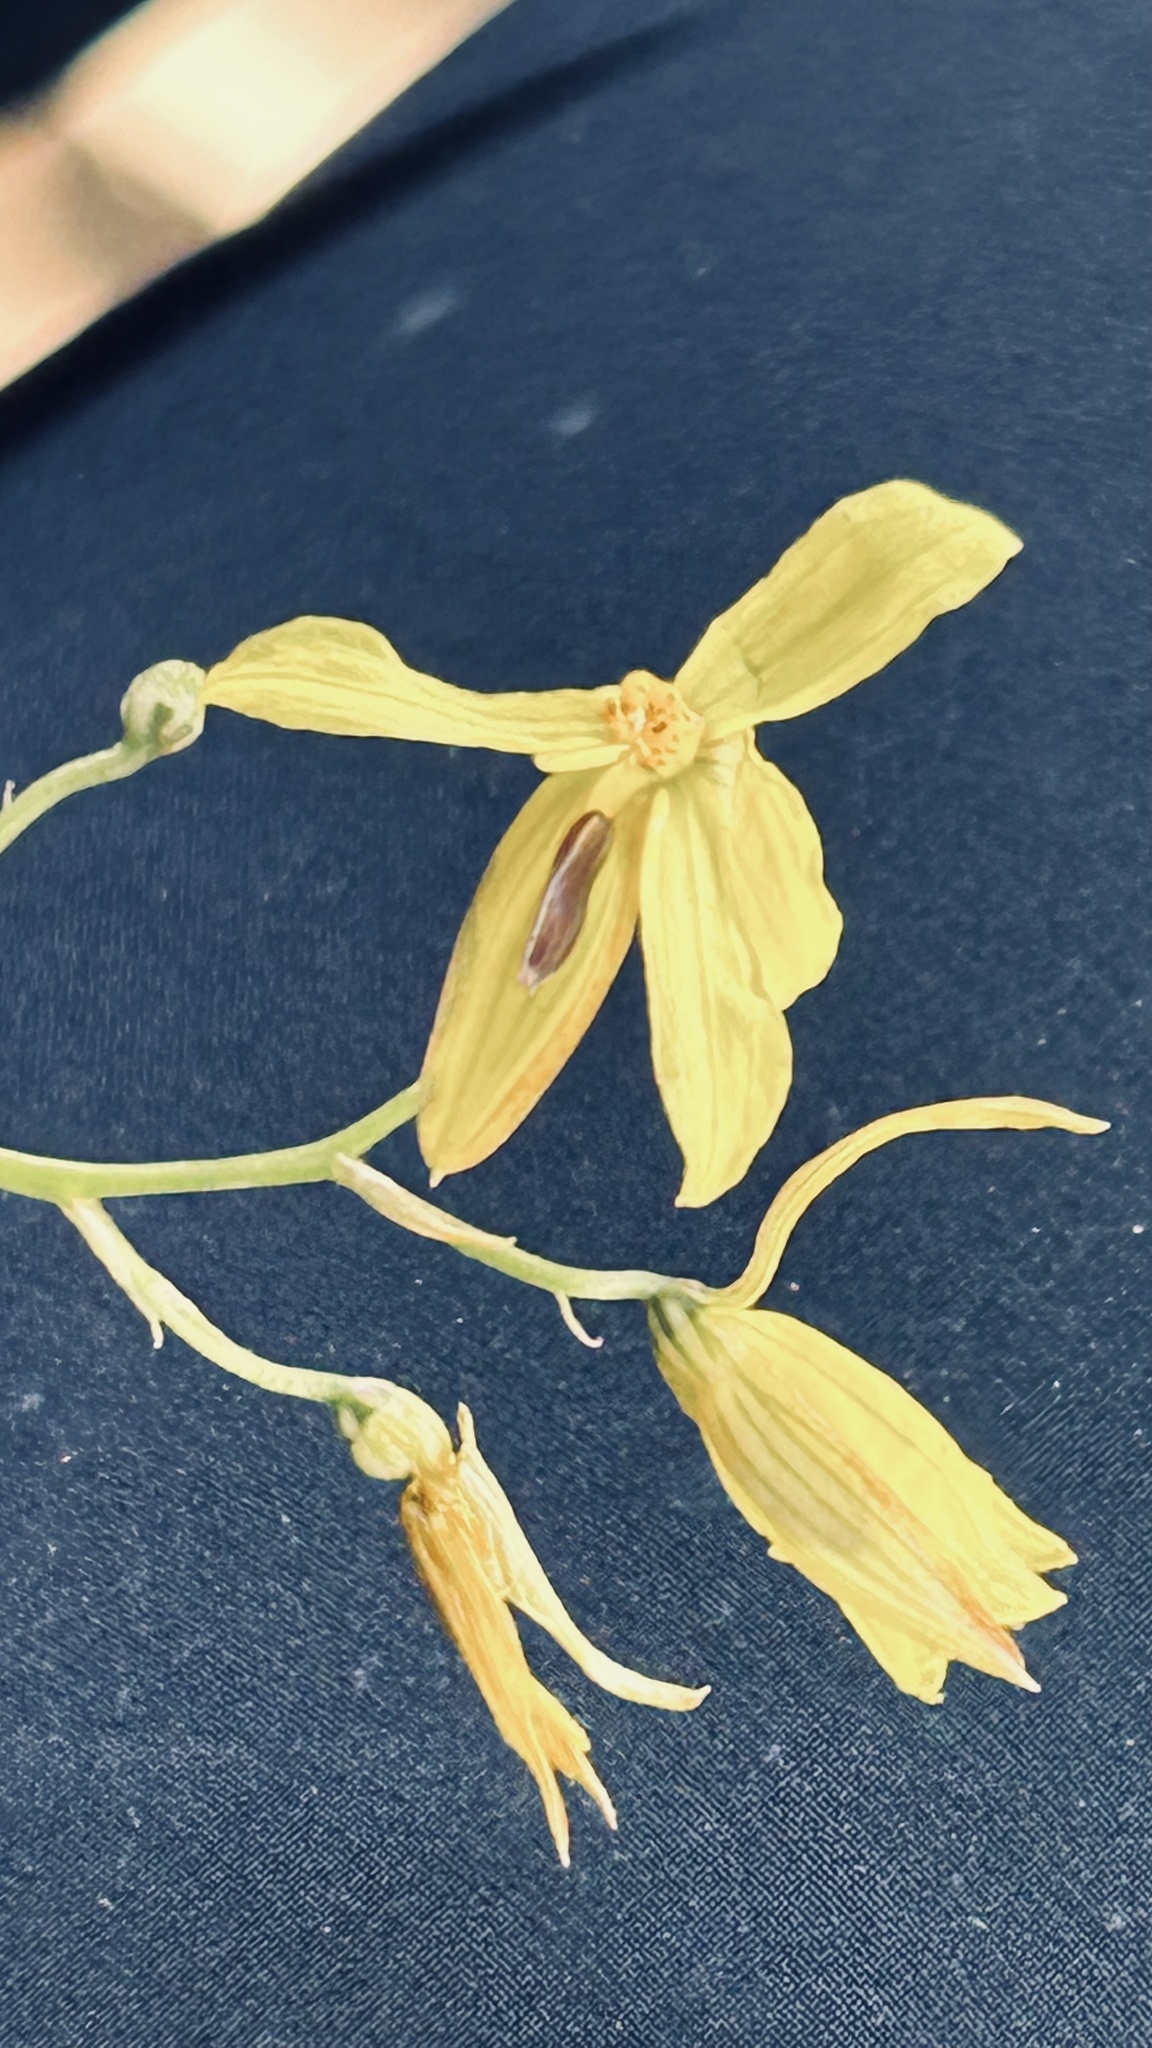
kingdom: Plantae
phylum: Tracheophyta
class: Liliopsida
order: Asparagales
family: Tecophilaeaceae
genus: Cyanella
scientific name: Cyanella lutea
